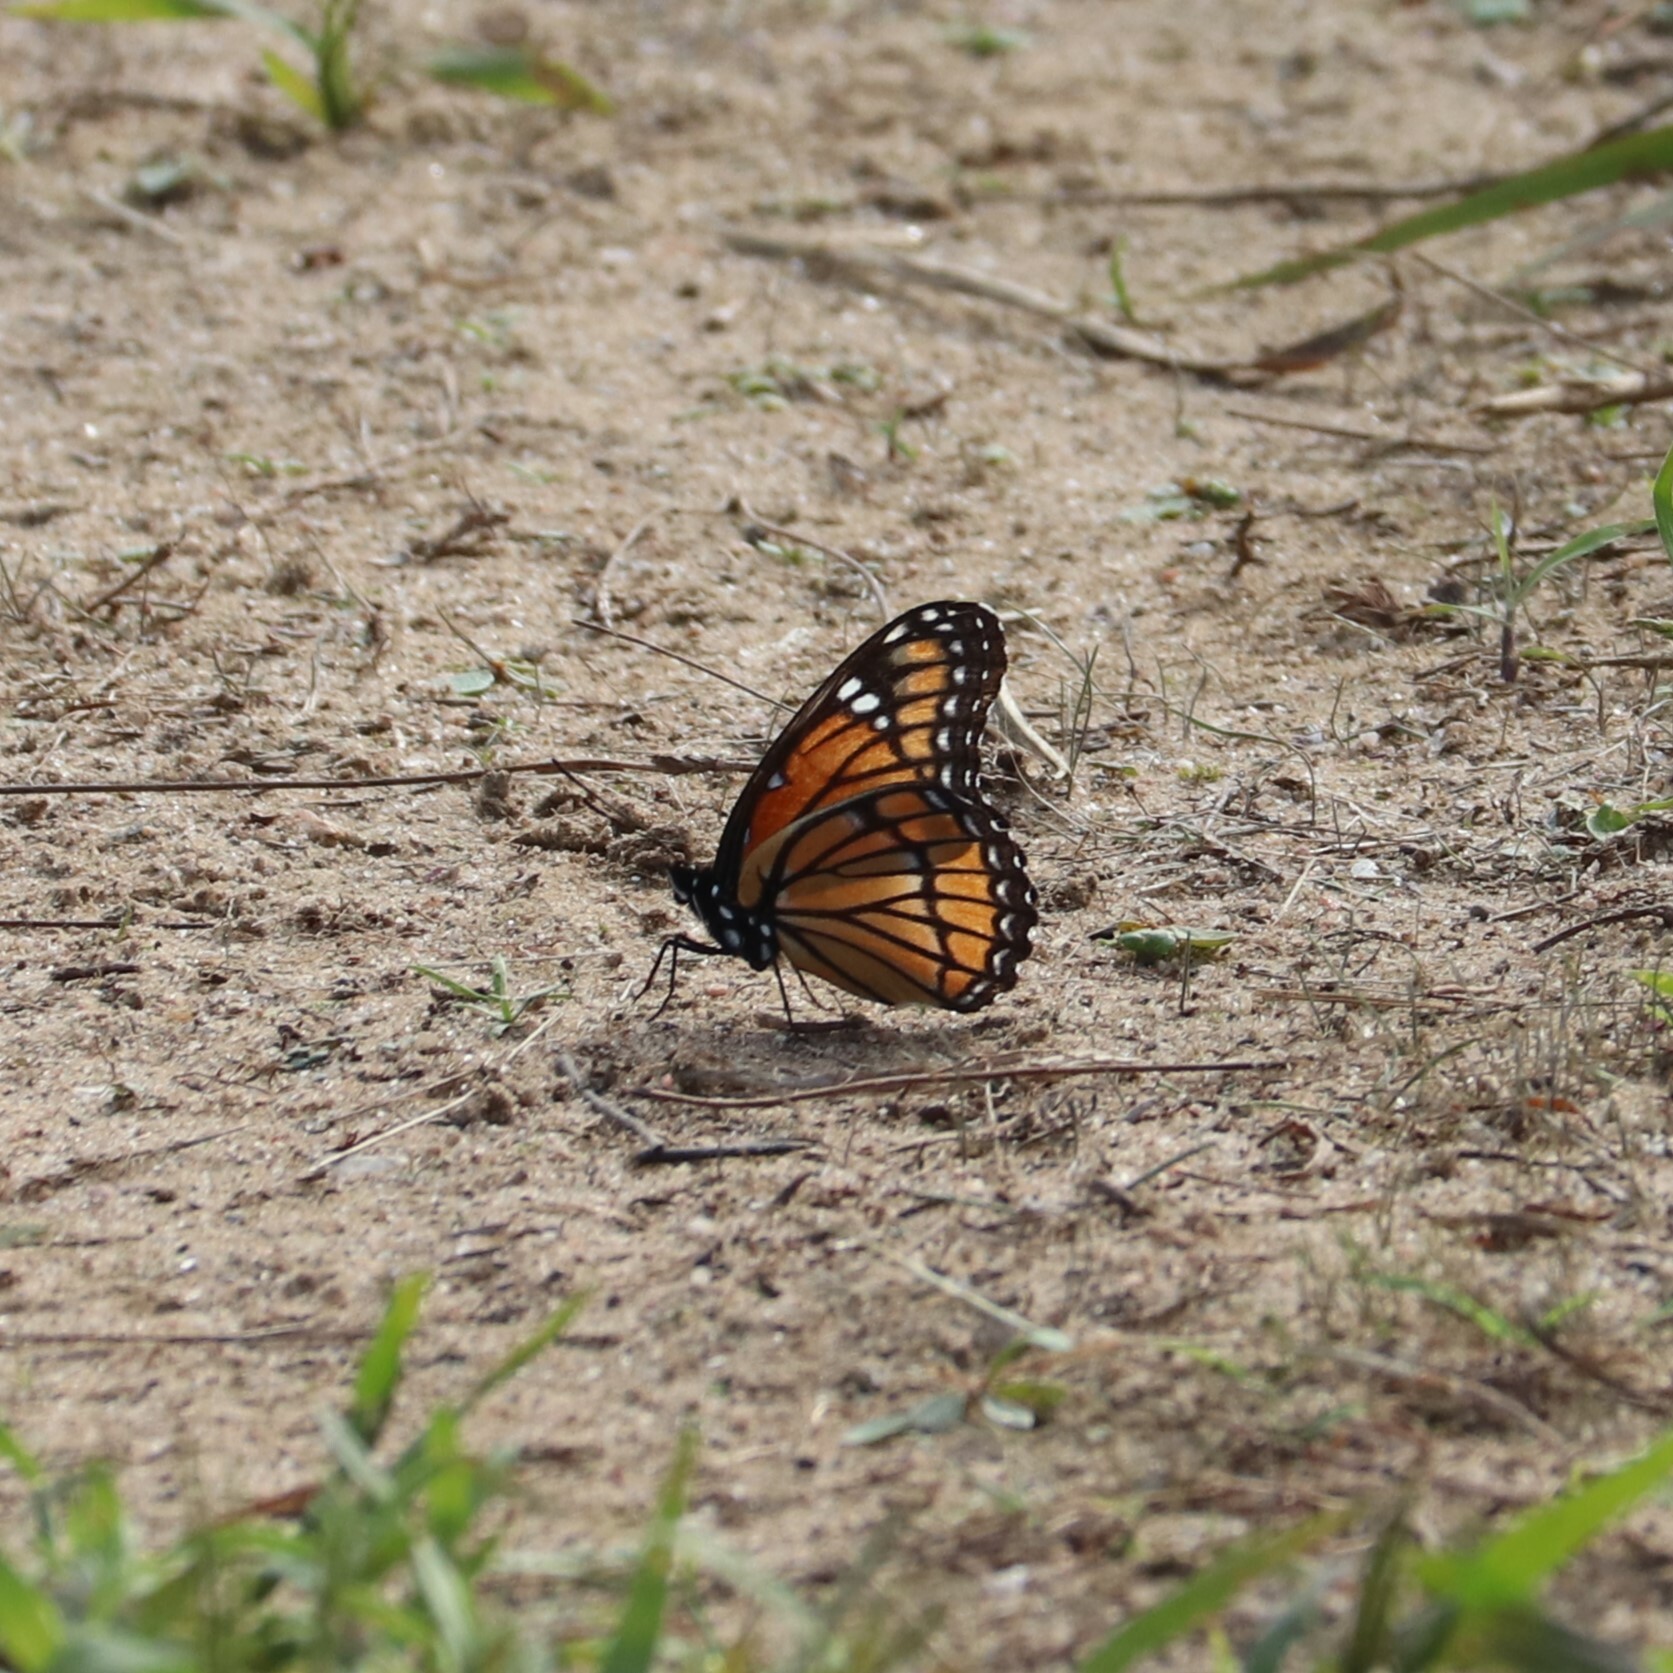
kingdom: Animalia
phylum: Arthropoda
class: Insecta
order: Lepidoptera
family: Nymphalidae
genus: Limenitis
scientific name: Limenitis archippus
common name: Viceroy
